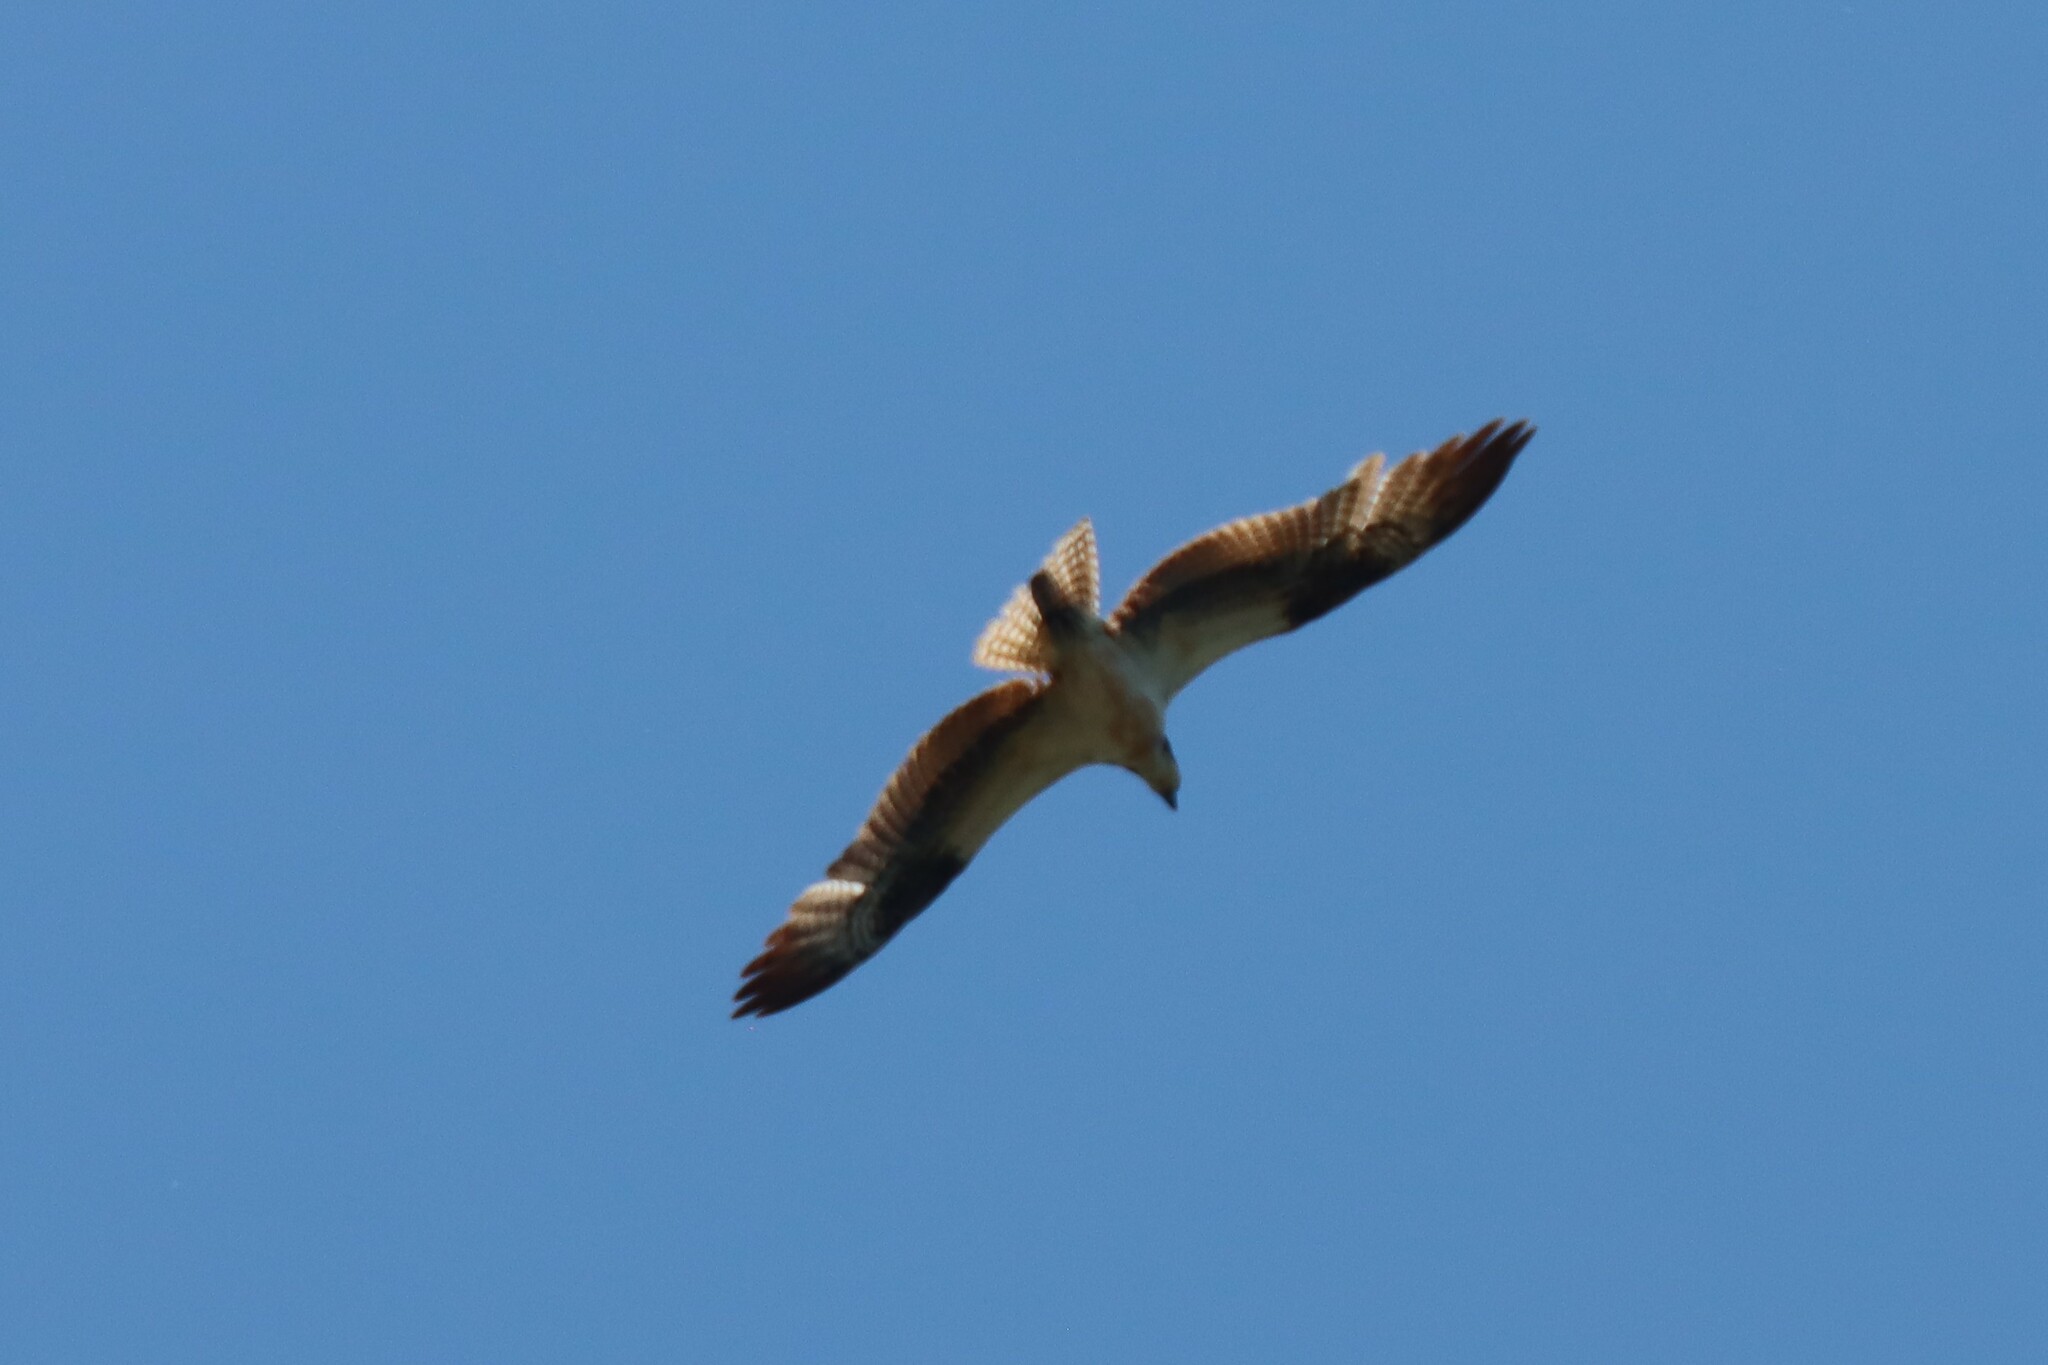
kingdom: Animalia
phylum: Chordata
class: Aves
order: Accipitriformes
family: Pandionidae
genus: Pandion
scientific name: Pandion haliaetus
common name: Osprey
